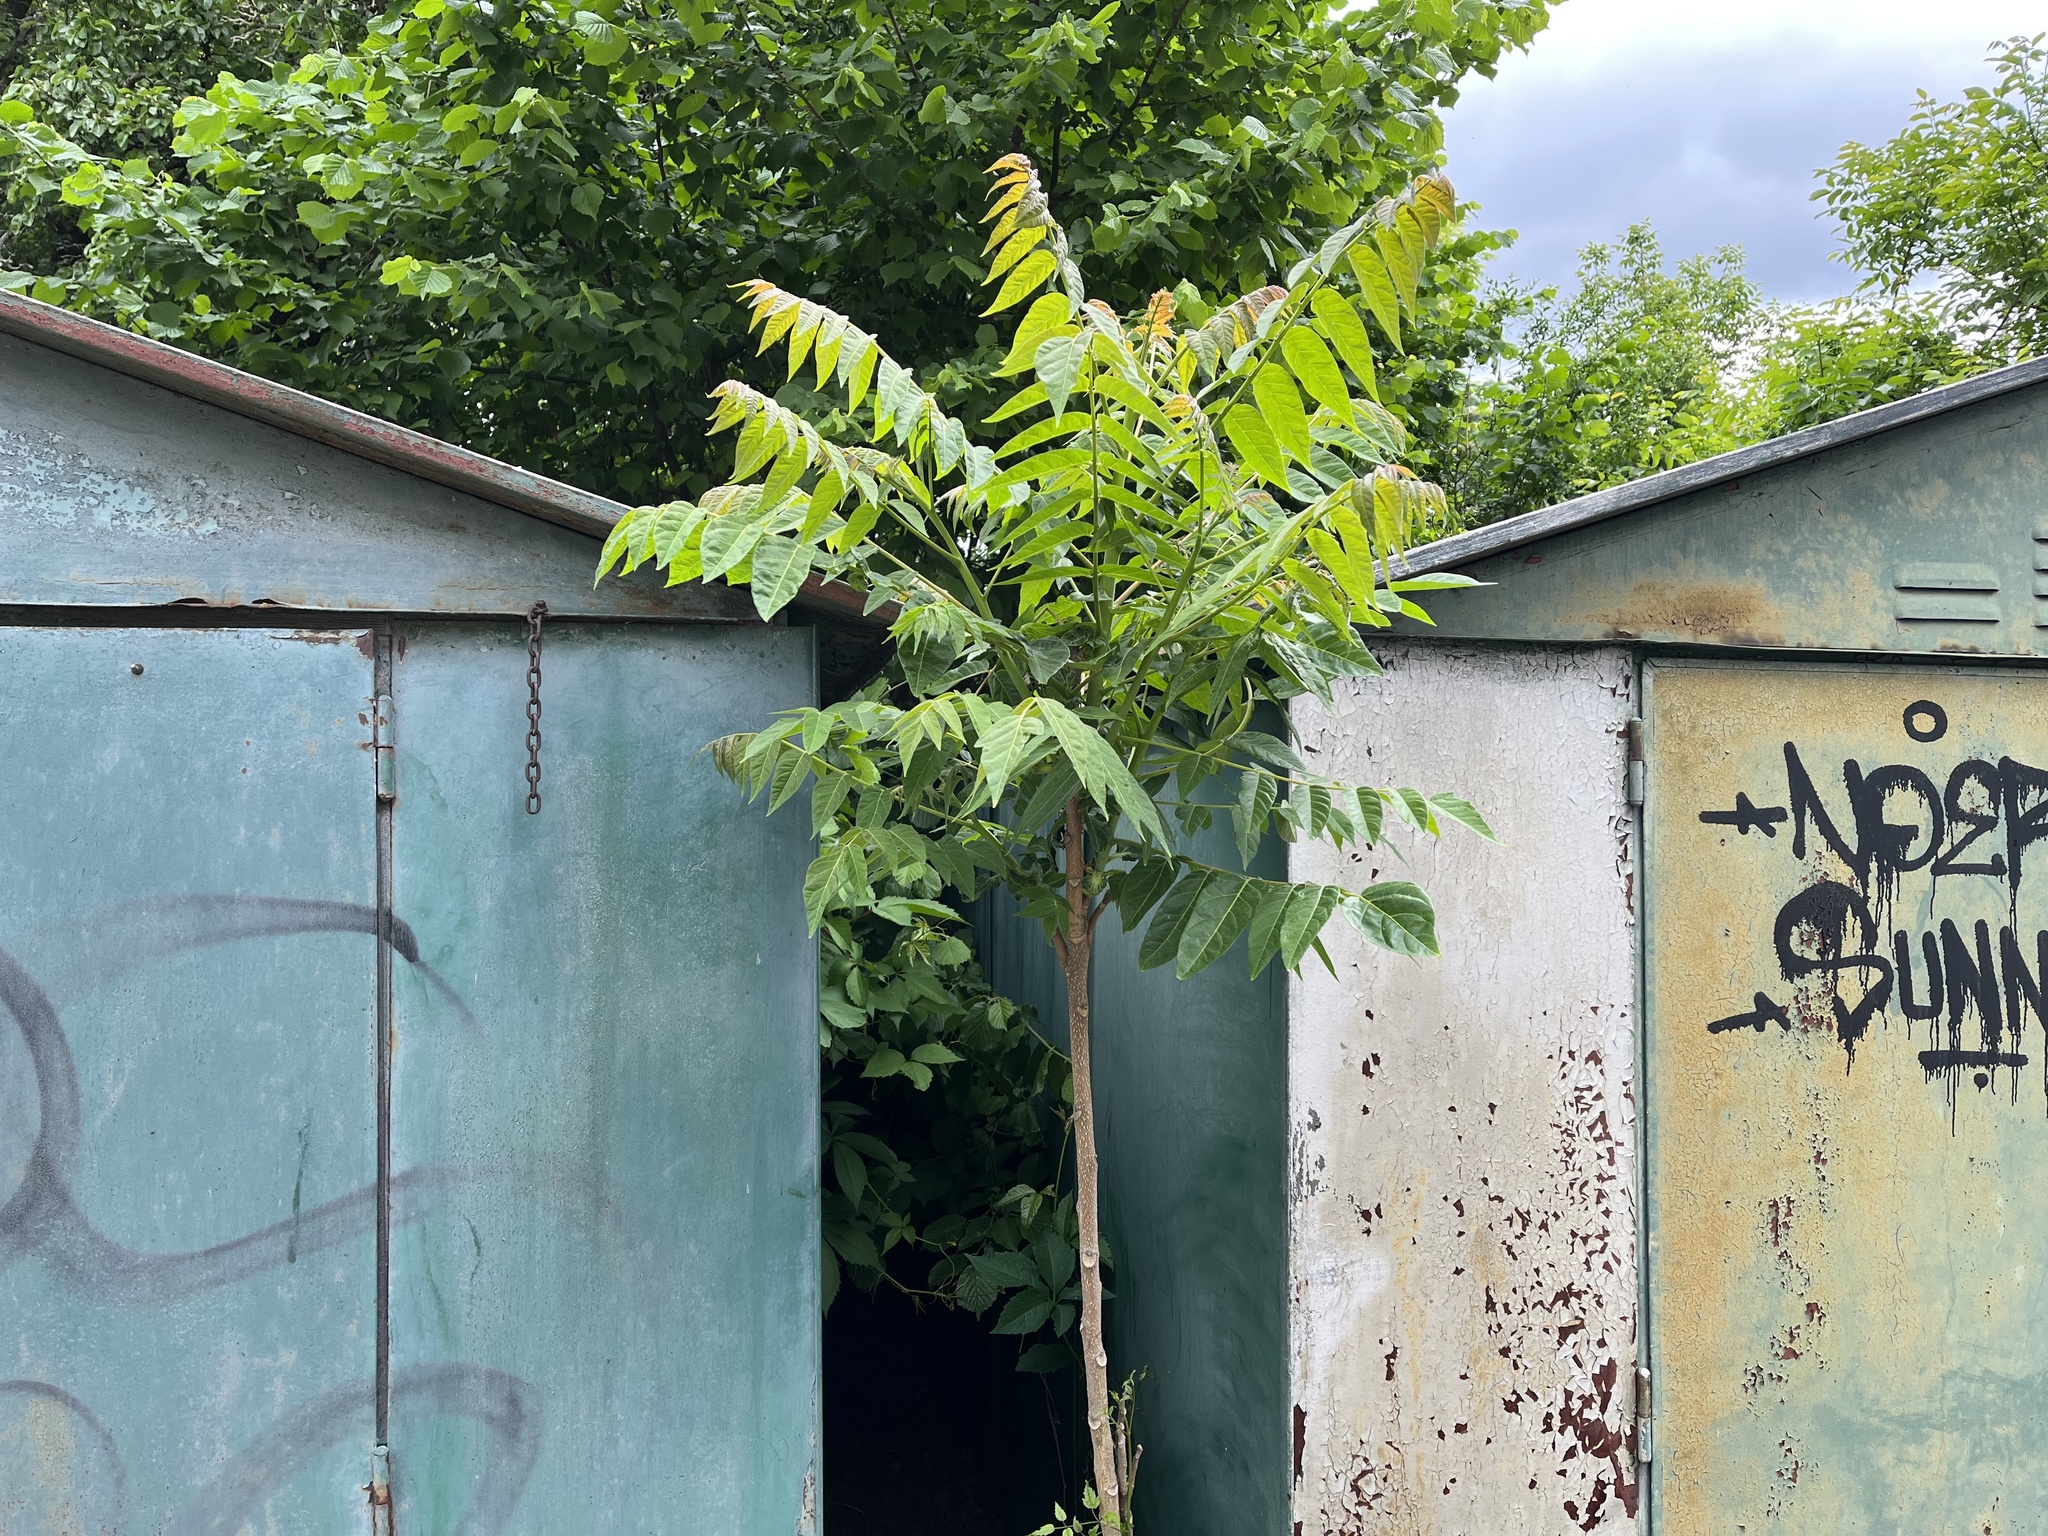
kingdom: Plantae
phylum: Tracheophyta
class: Magnoliopsida
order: Sapindales
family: Simaroubaceae
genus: Ailanthus
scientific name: Ailanthus altissima
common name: Tree-of-heaven
